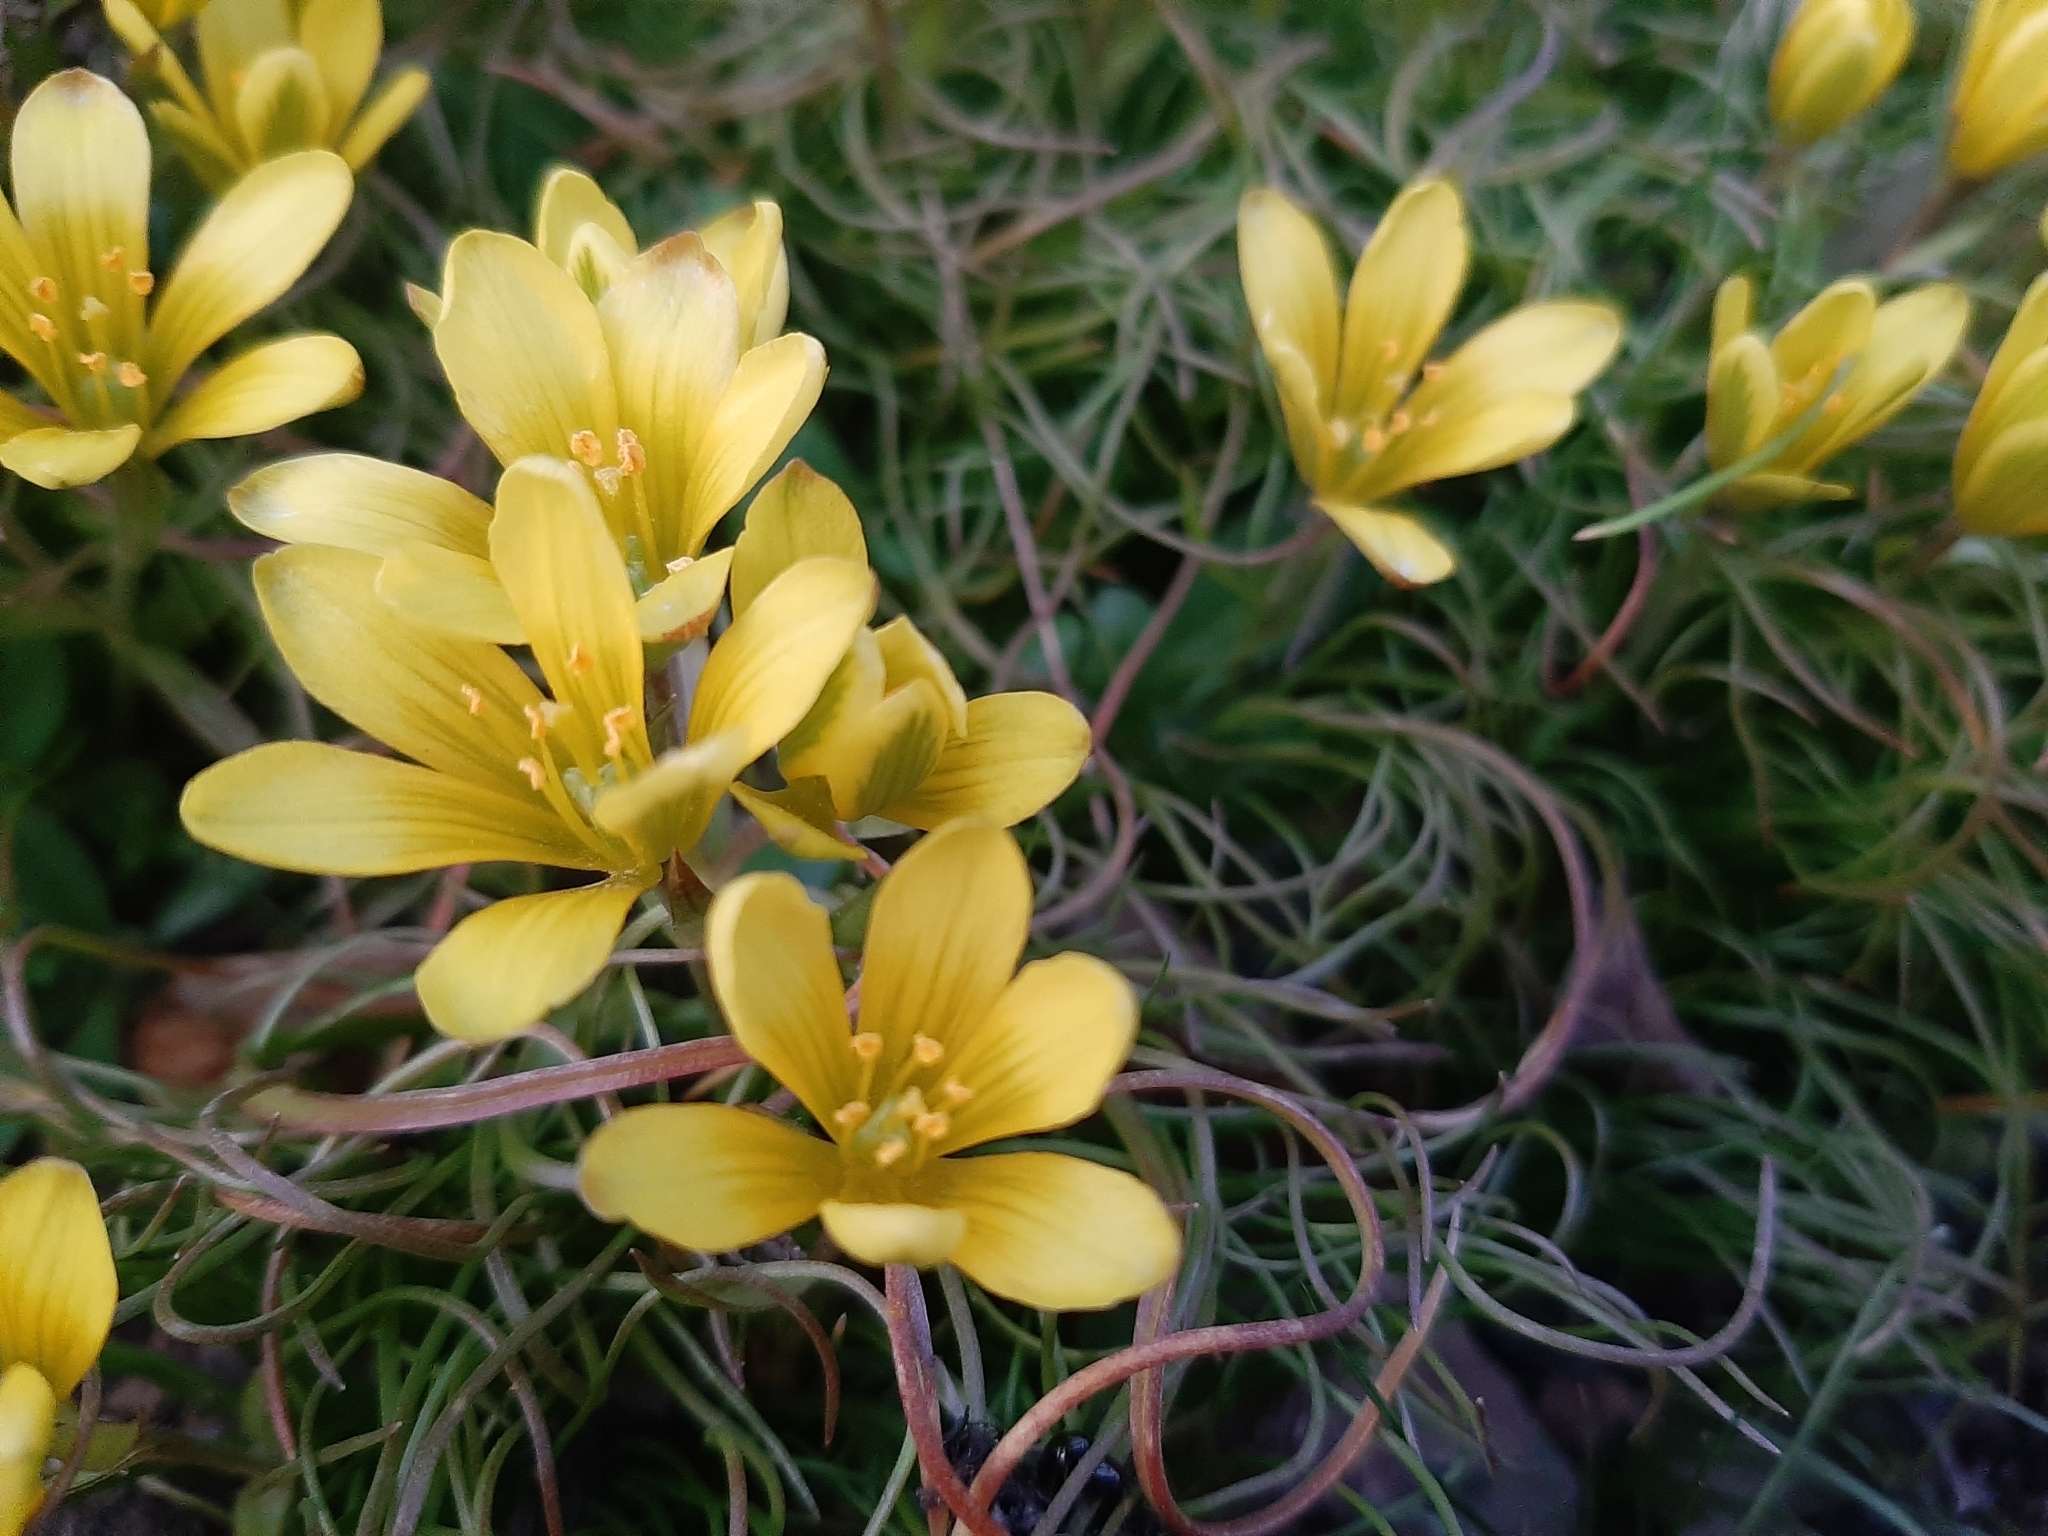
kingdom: Plantae
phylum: Tracheophyta
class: Liliopsida
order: Liliales
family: Liliaceae
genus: Gagea
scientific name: Gagea bohemica
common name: Early star-of-bethlehem
